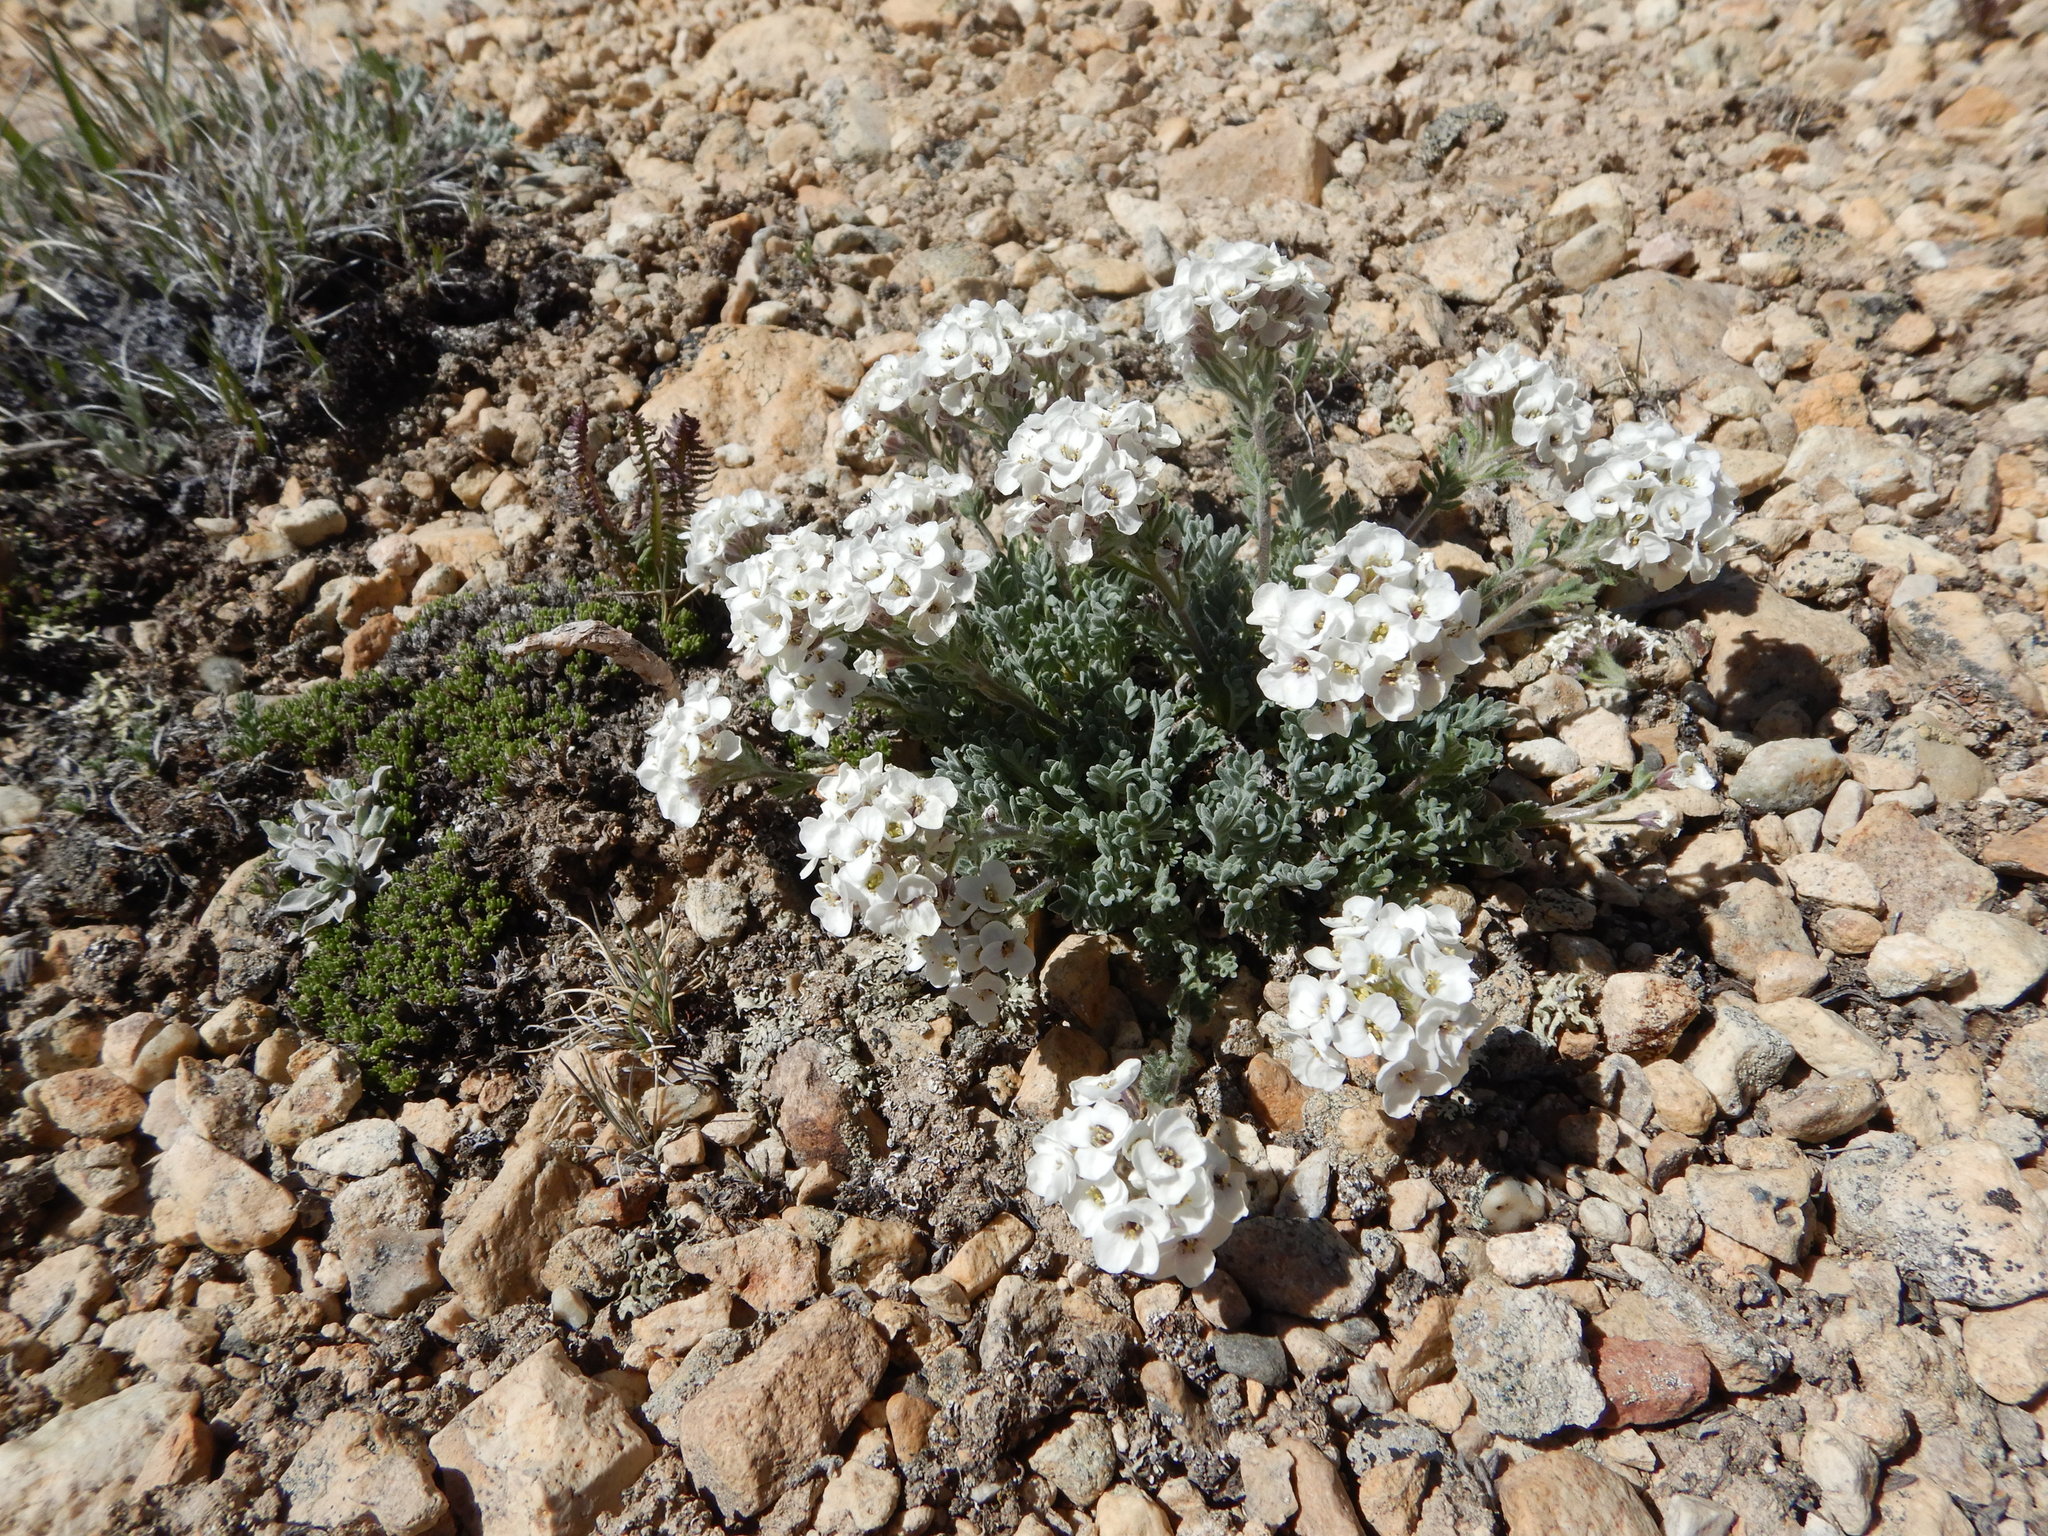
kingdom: Plantae
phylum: Tracheophyta
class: Magnoliopsida
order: Brassicales
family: Brassicaceae
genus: Smelowskia
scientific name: Smelowskia americana
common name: American false candytuft
